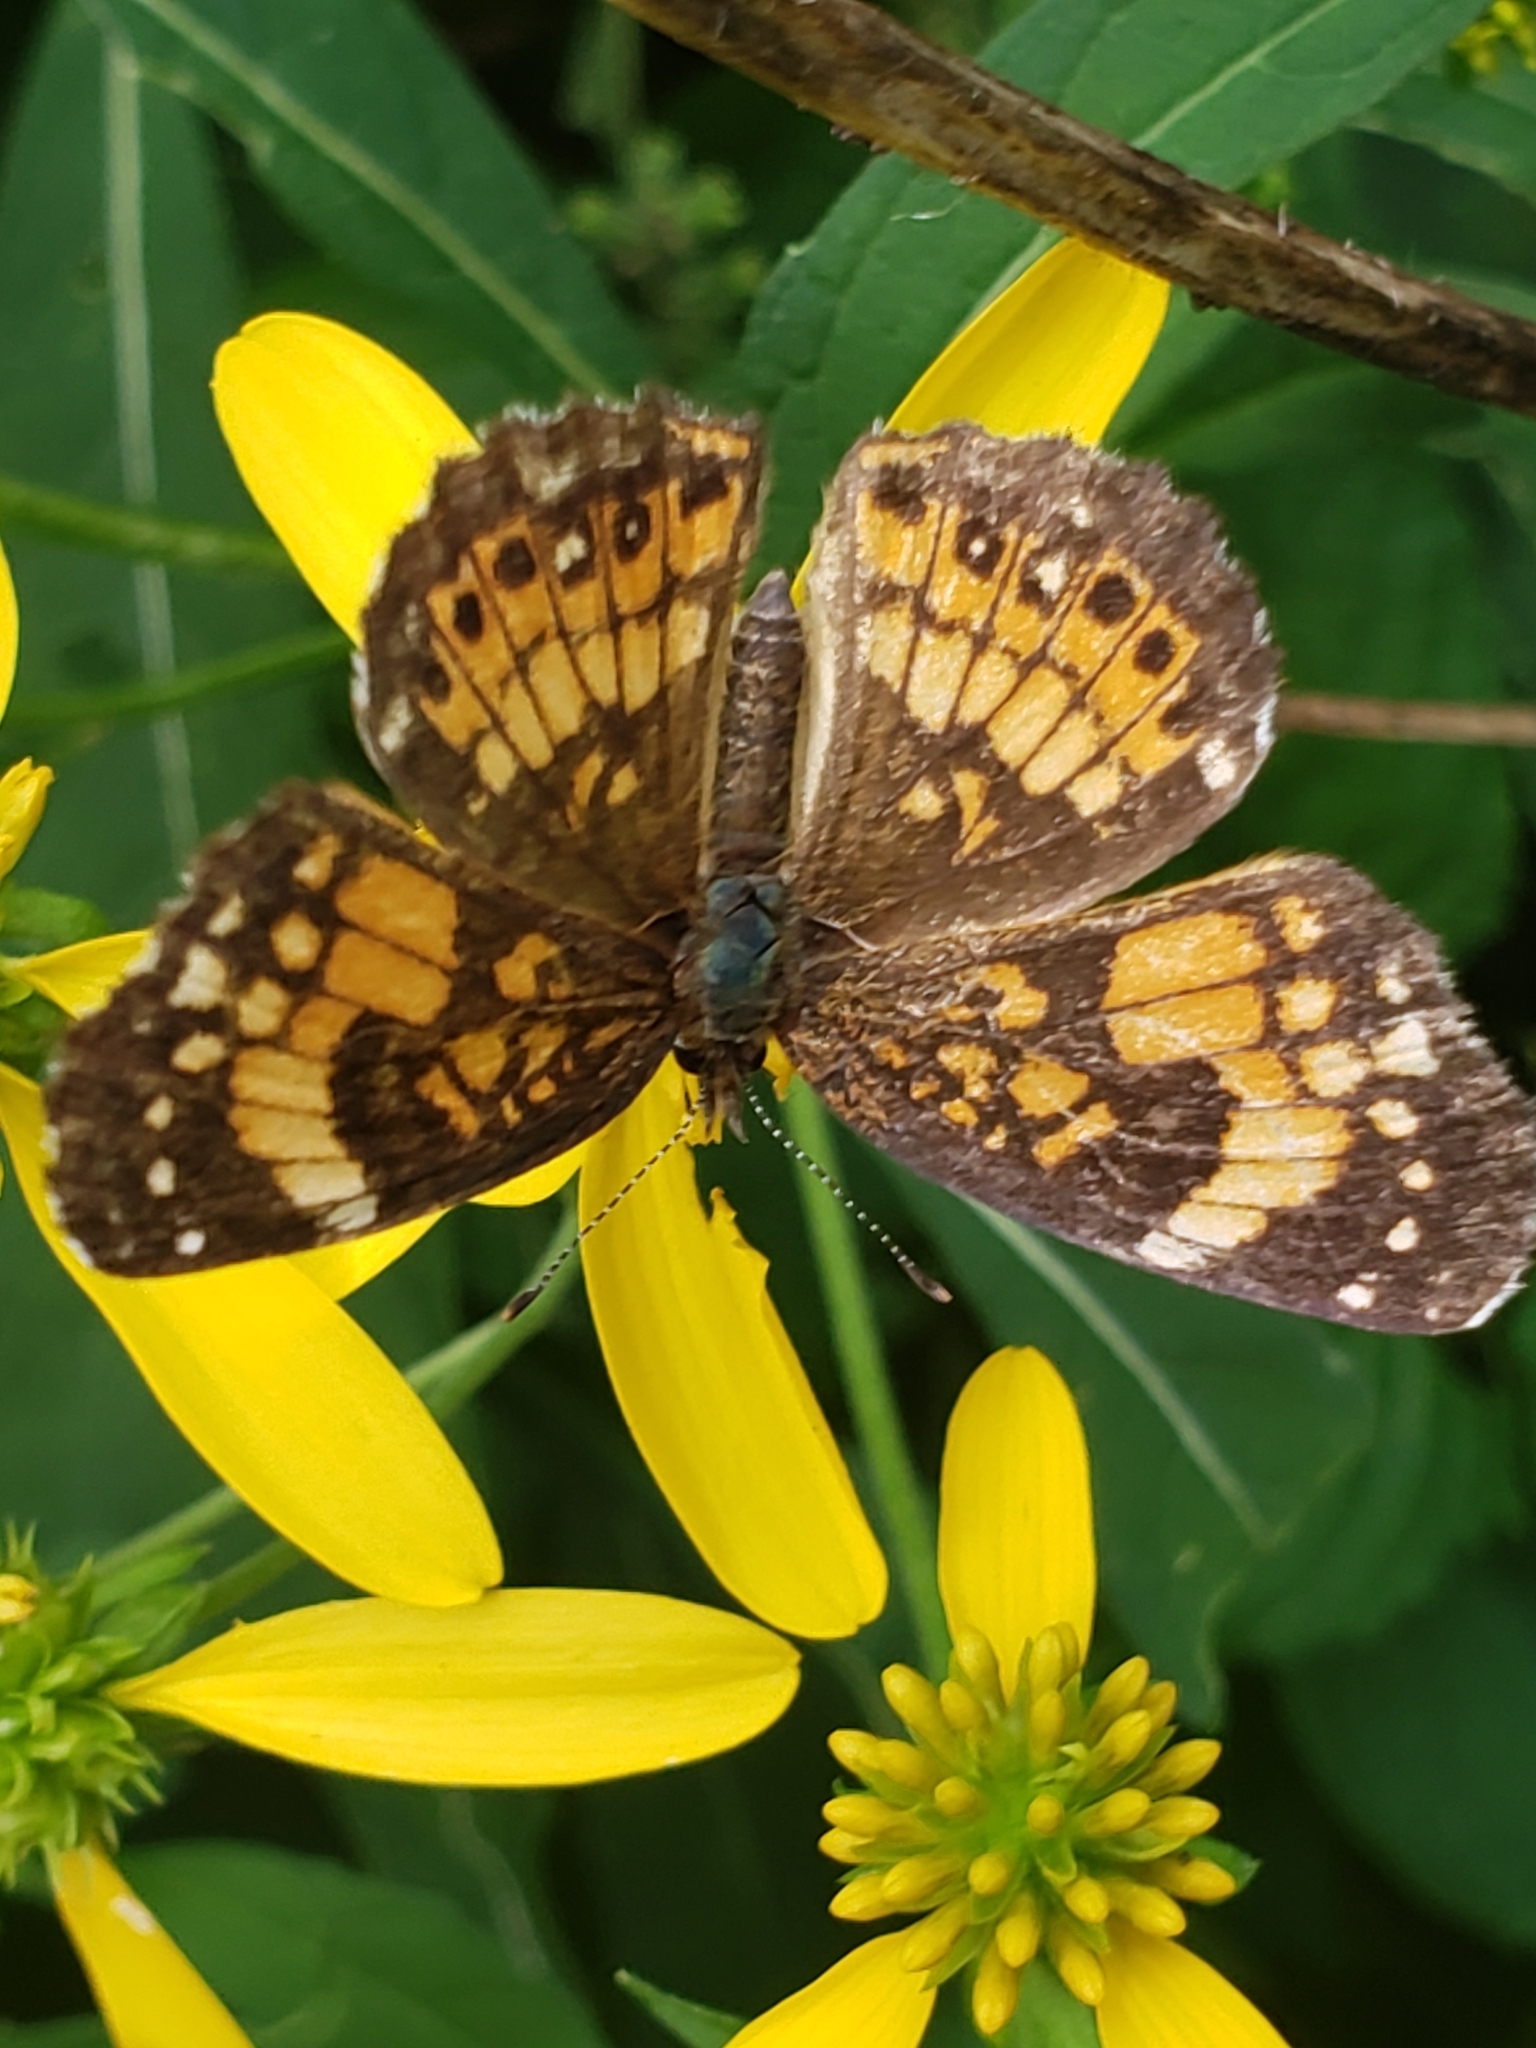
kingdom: Animalia
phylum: Arthropoda
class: Insecta
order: Lepidoptera
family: Nymphalidae
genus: Chlosyne
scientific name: Chlosyne nycteis
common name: Silvery checkerspot
